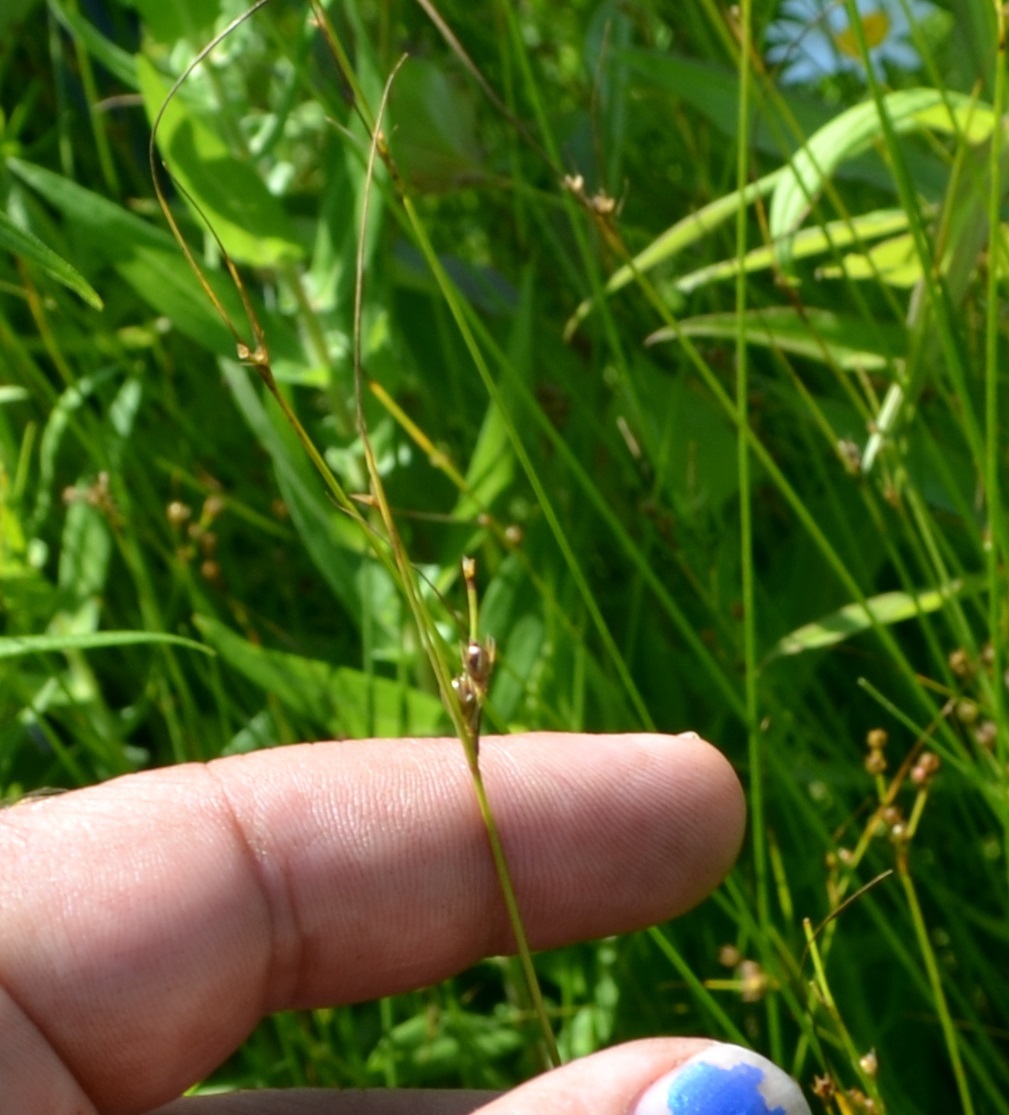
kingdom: Plantae
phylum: Tracheophyta
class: Liliopsida
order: Poales
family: Juncaceae
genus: Juncus
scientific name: Juncus dudleyi
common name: Dudley's rush
